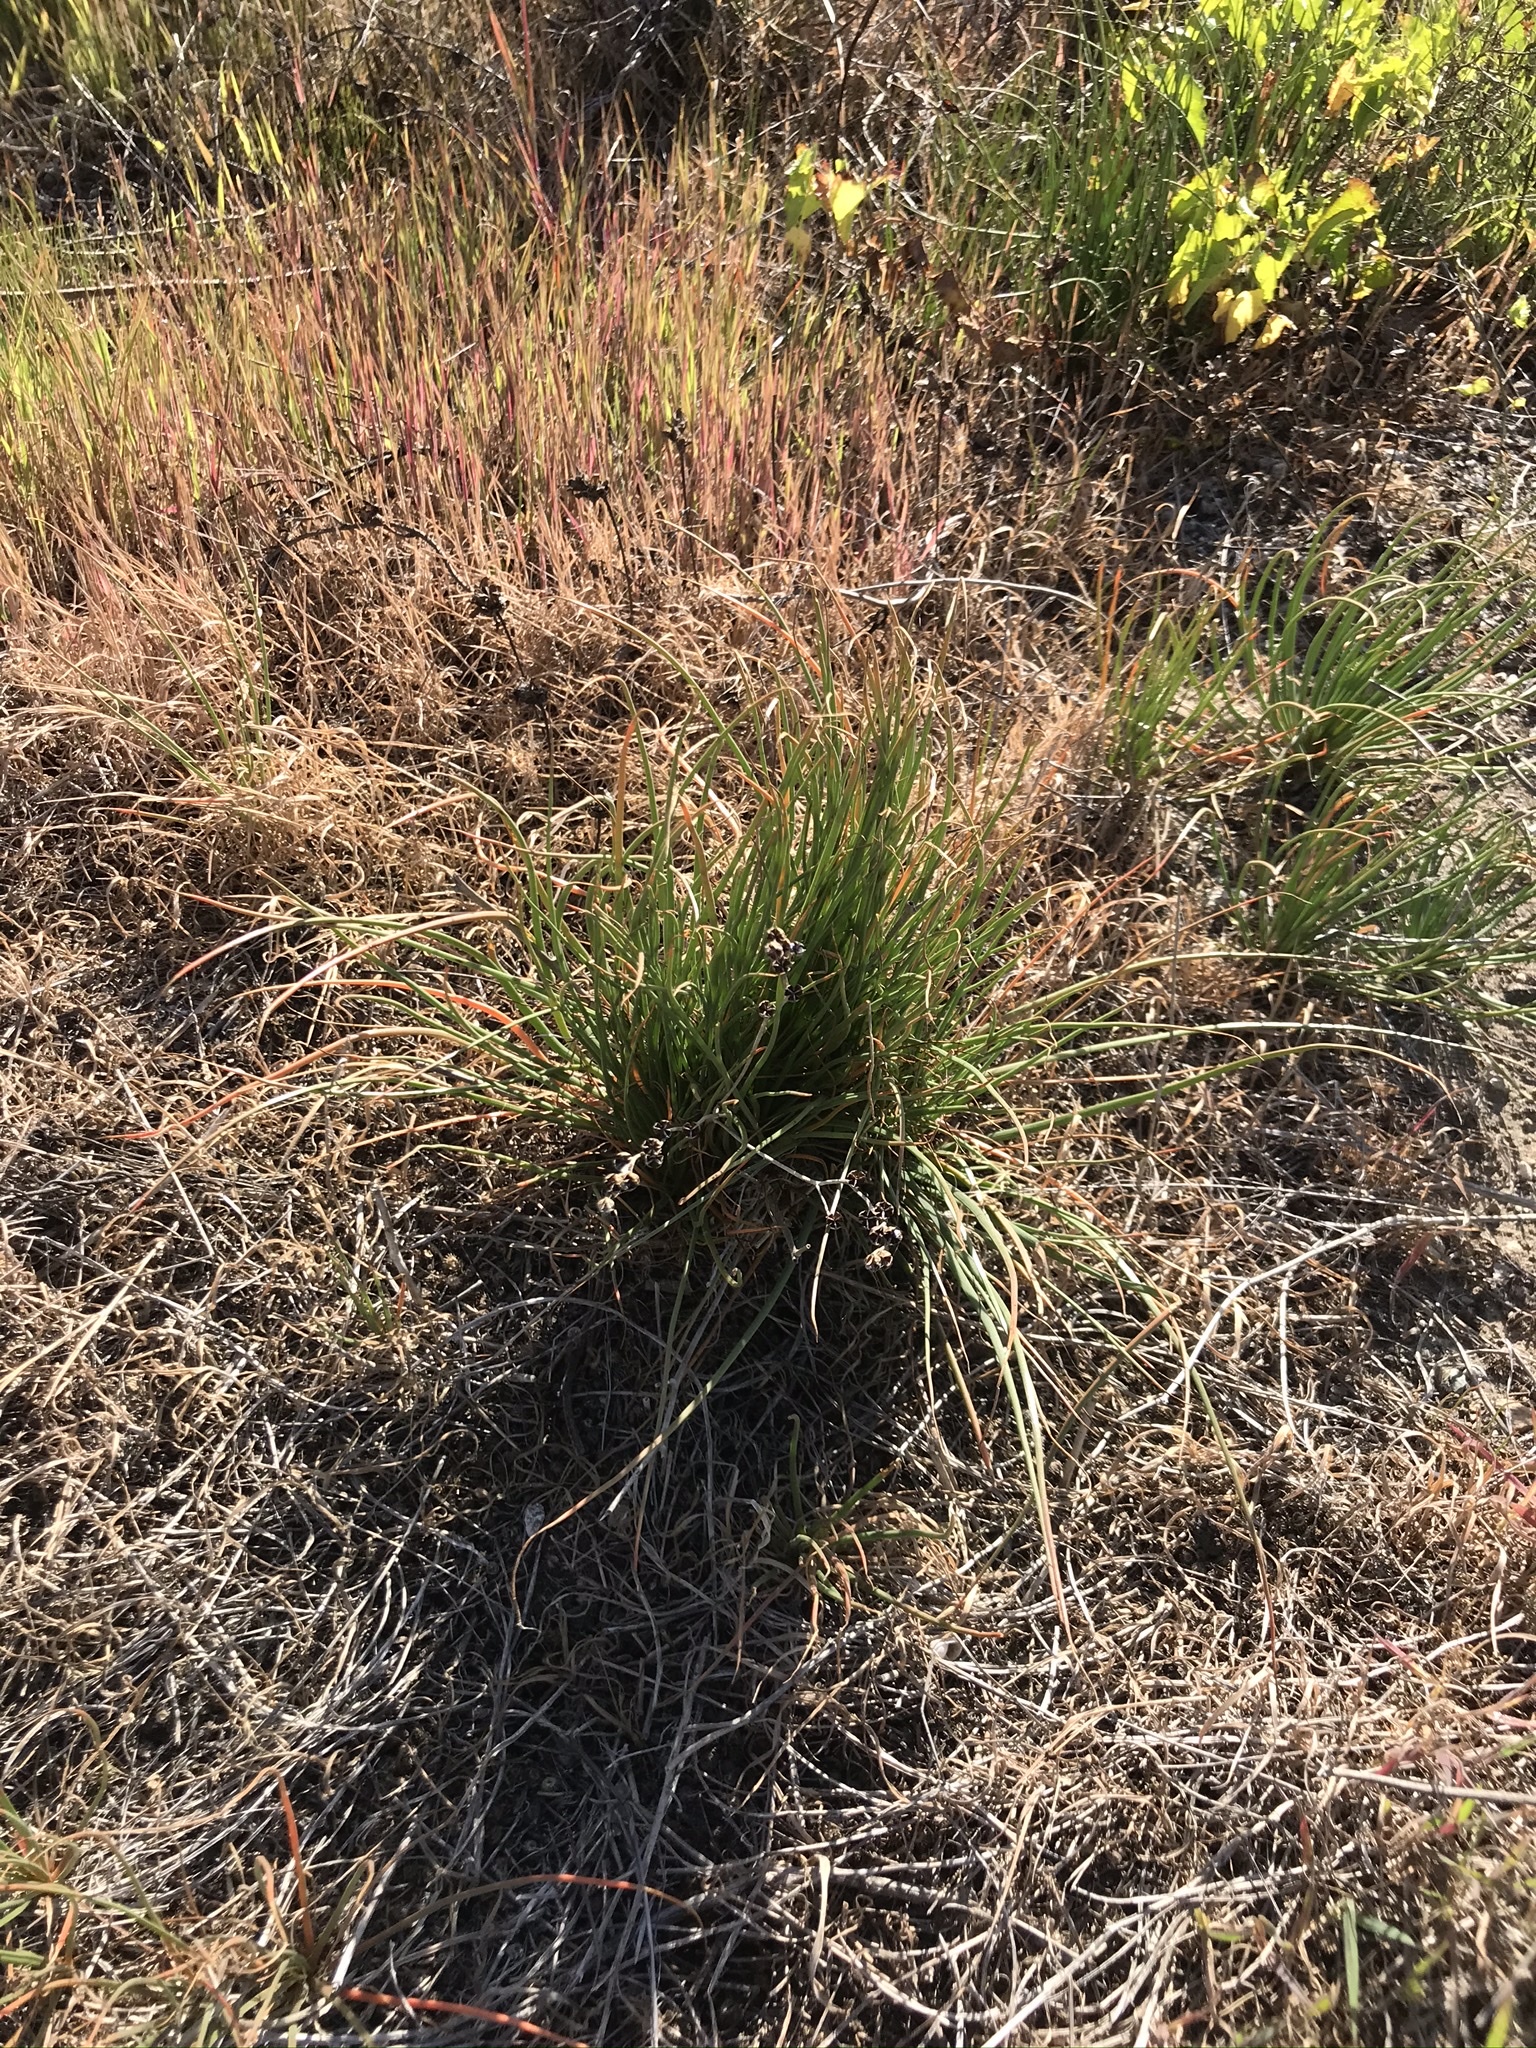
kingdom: Plantae
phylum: Tracheophyta
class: Liliopsida
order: Asparagales
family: Asphodelaceae
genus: Asphodelus
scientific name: Asphodelus fistulosus
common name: Onionweed
